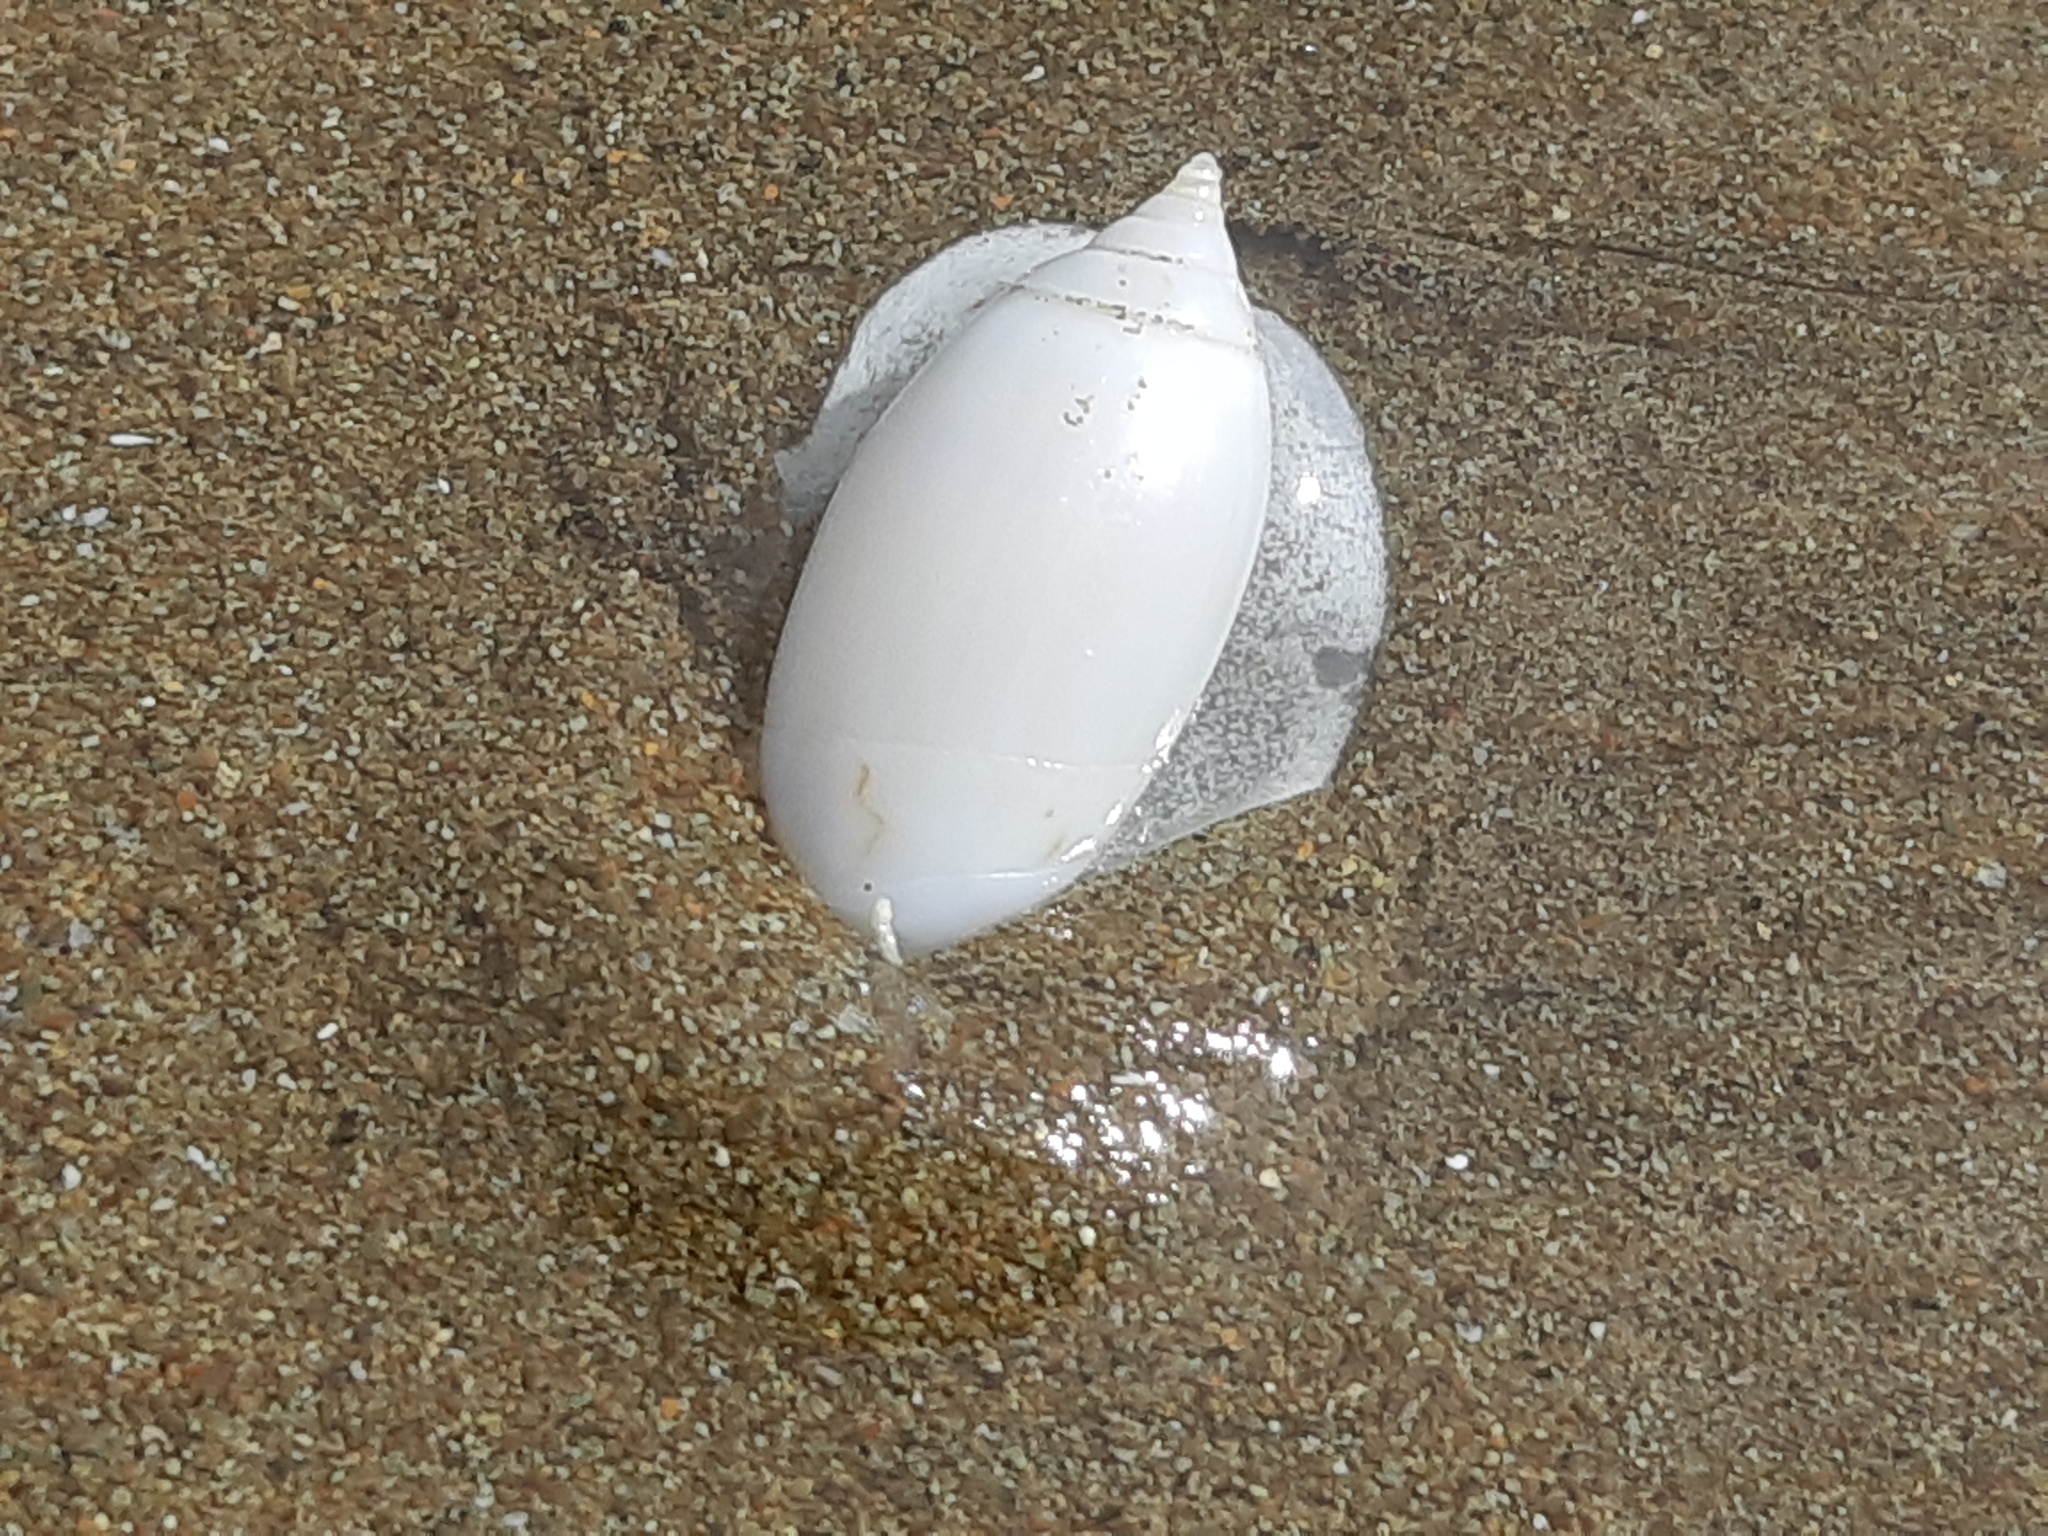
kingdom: Animalia
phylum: Mollusca
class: Gastropoda
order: Neogastropoda
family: Olividae
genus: Oliva
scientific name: Oliva undatella
